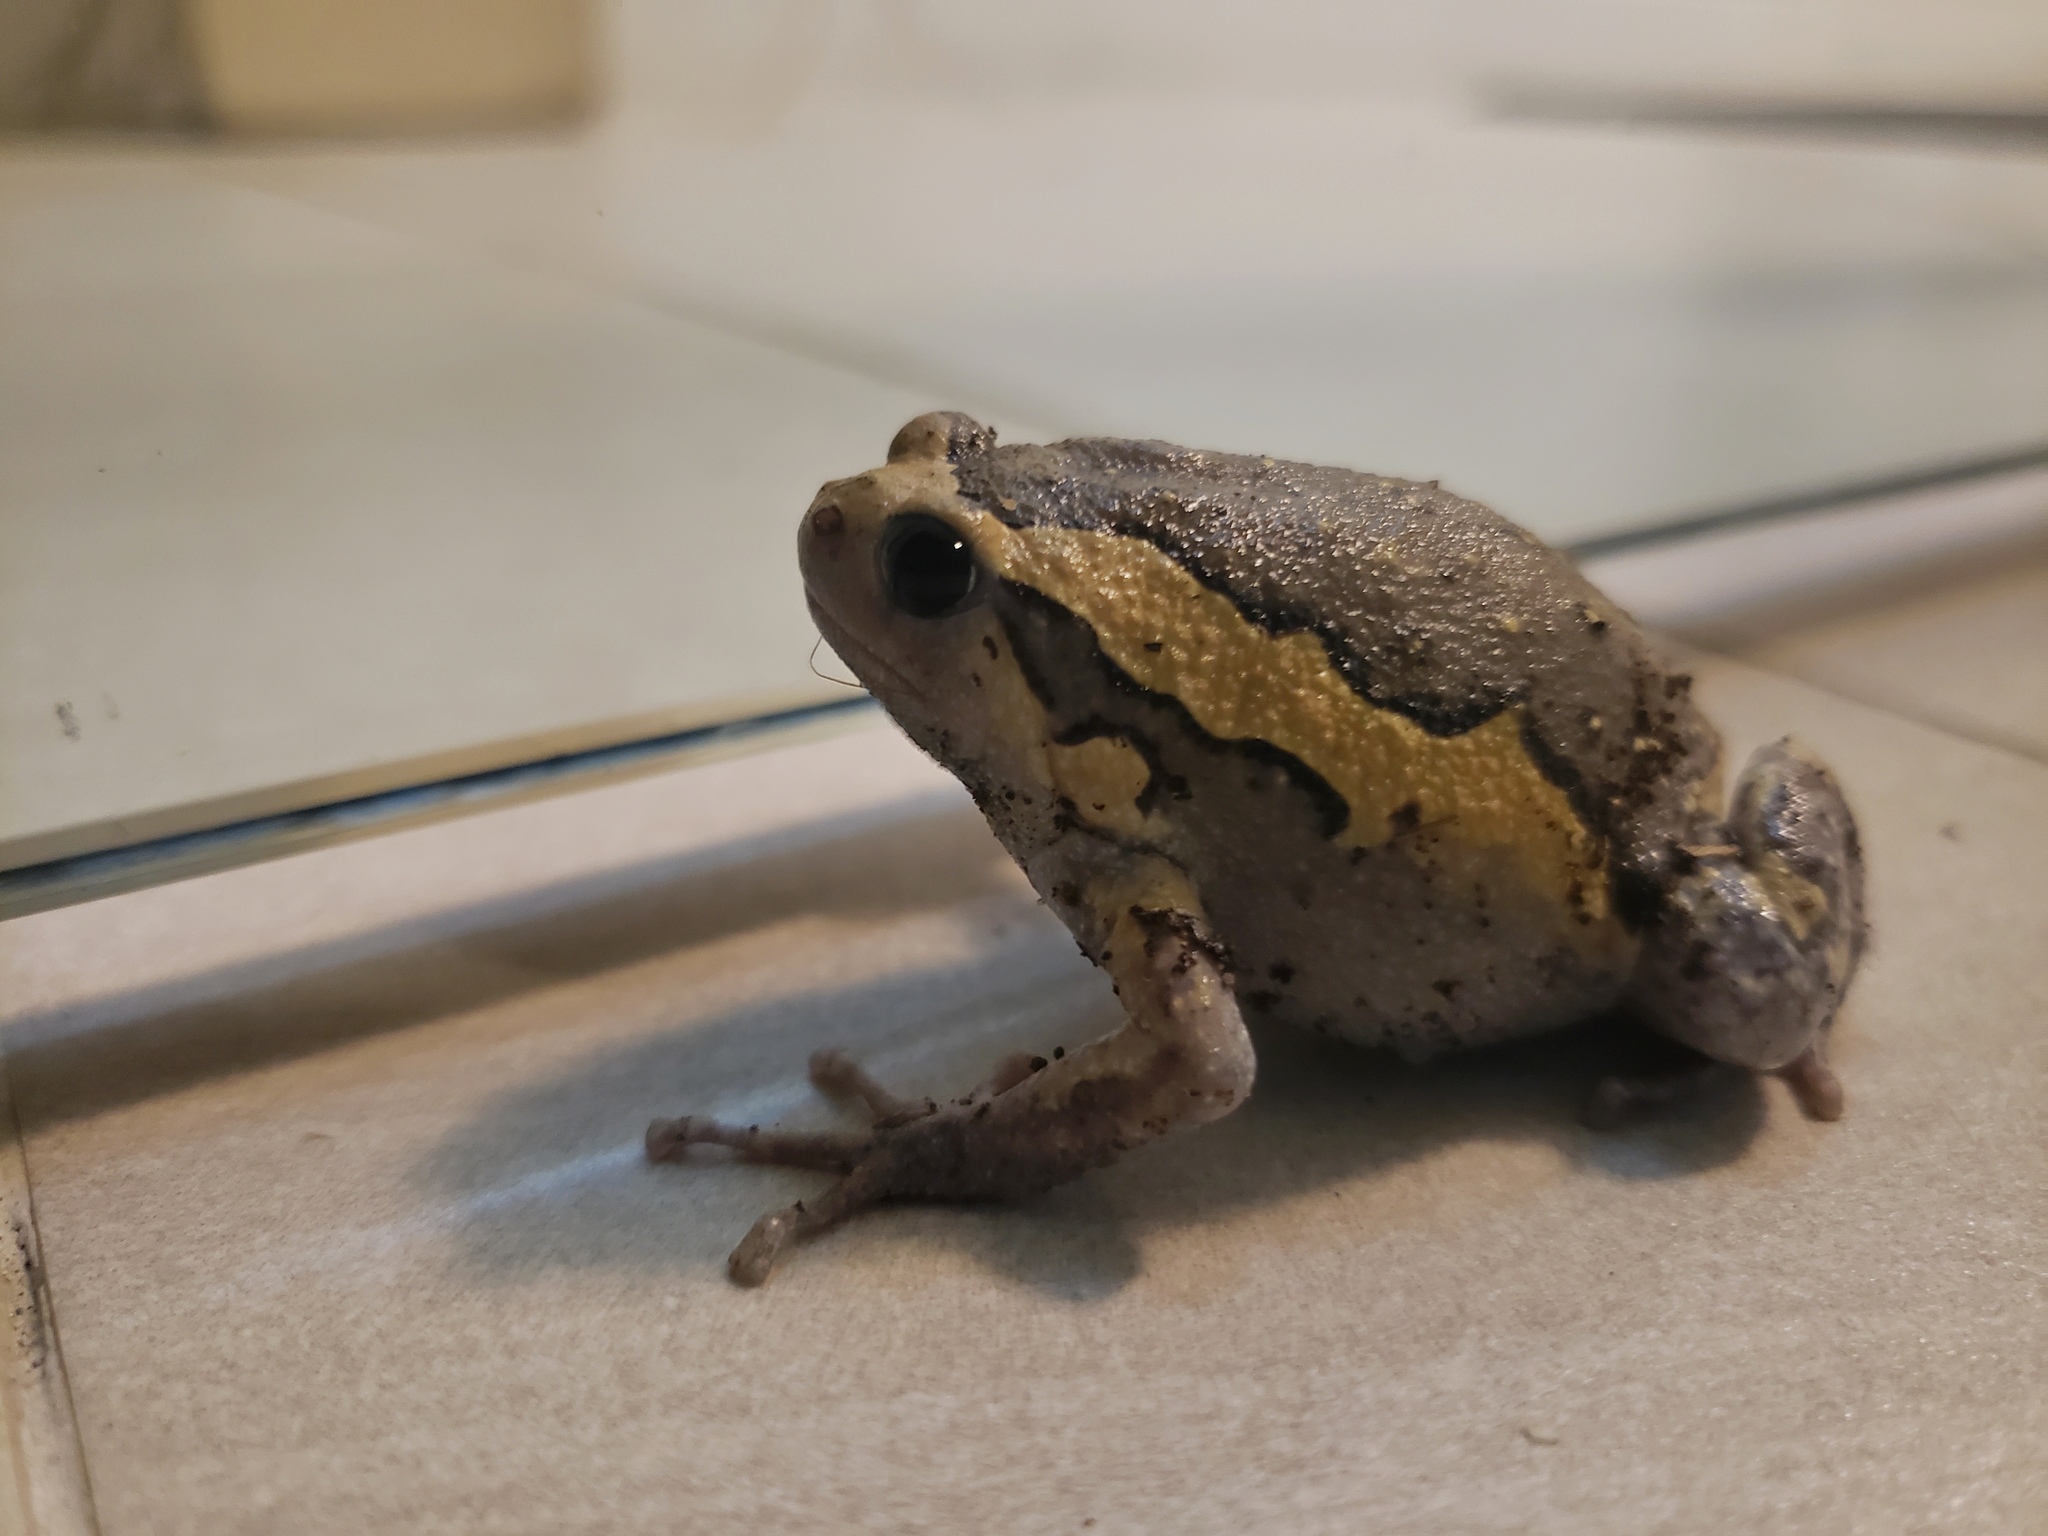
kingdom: Animalia
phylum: Chordata
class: Amphibia
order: Anura
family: Microhylidae
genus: Kaloula
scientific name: Kaloula pulchra
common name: Common,banded bullfrog
